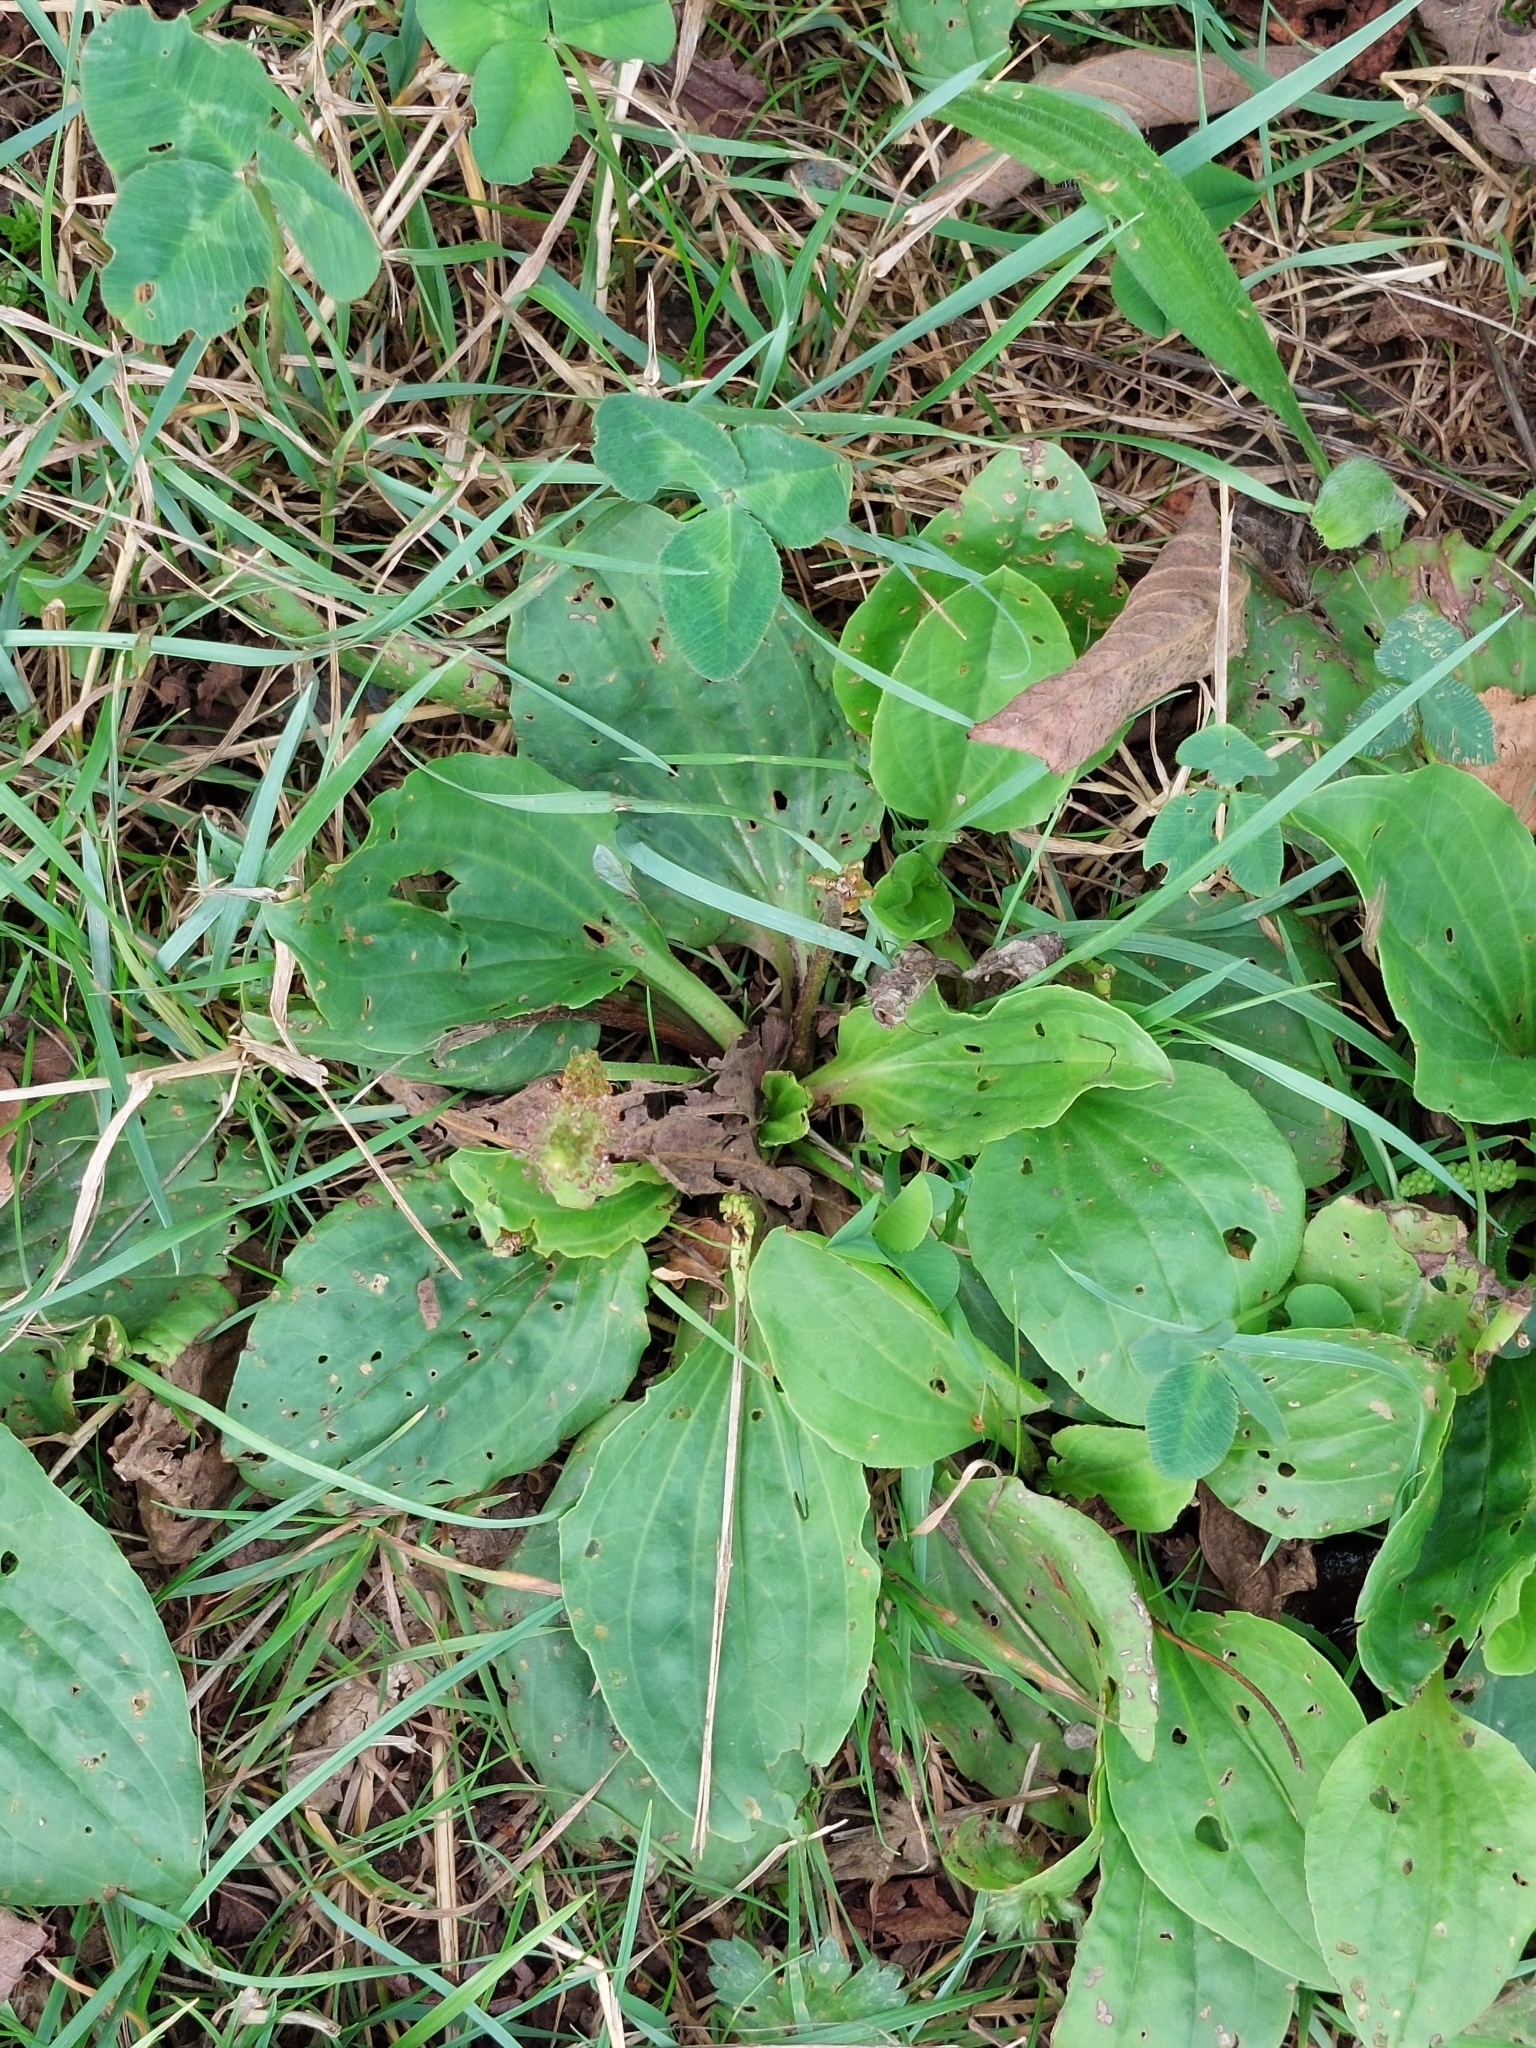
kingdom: Plantae
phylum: Tracheophyta
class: Magnoliopsida
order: Lamiales
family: Plantaginaceae
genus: Plantago
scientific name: Plantago major
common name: Common plantain
